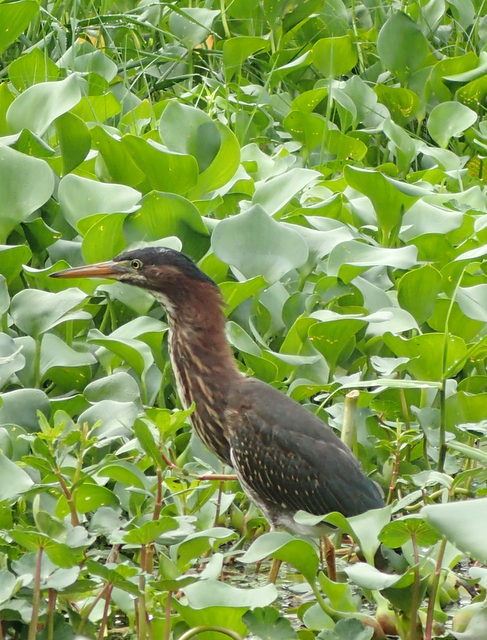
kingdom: Animalia
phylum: Chordata
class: Aves
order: Pelecaniformes
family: Ardeidae
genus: Butorides
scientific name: Butorides virescens
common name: Green heron
